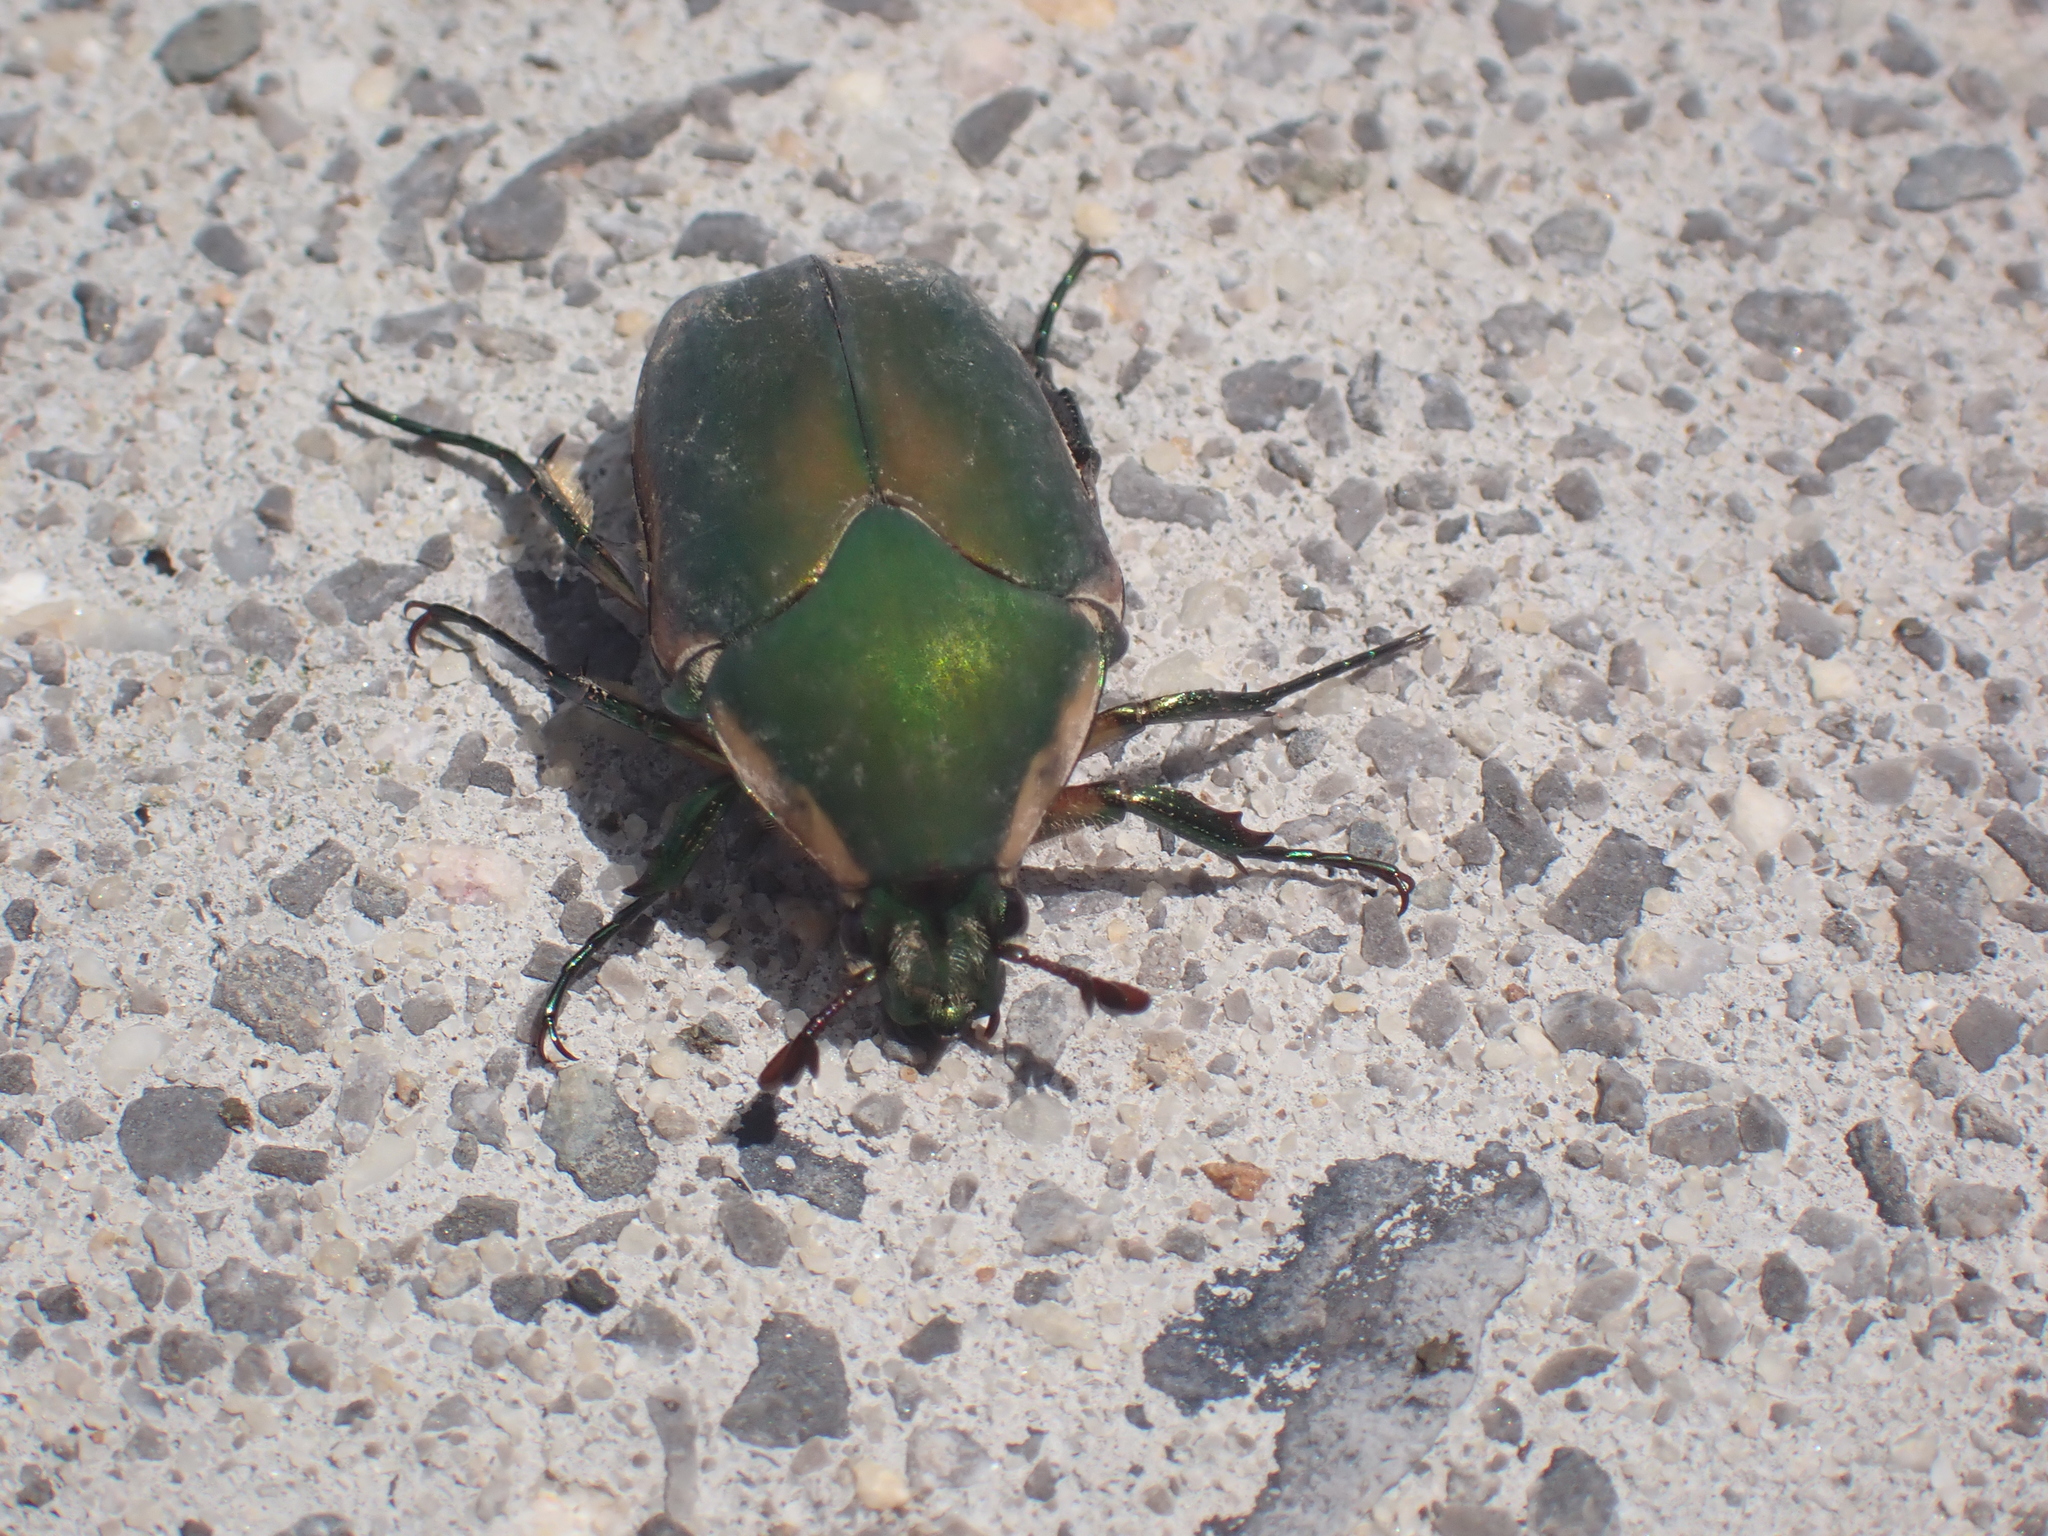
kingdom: Animalia
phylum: Arthropoda
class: Insecta
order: Coleoptera
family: Scarabaeidae
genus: Cotinis
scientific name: Cotinis nitida
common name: Common green june beetle
